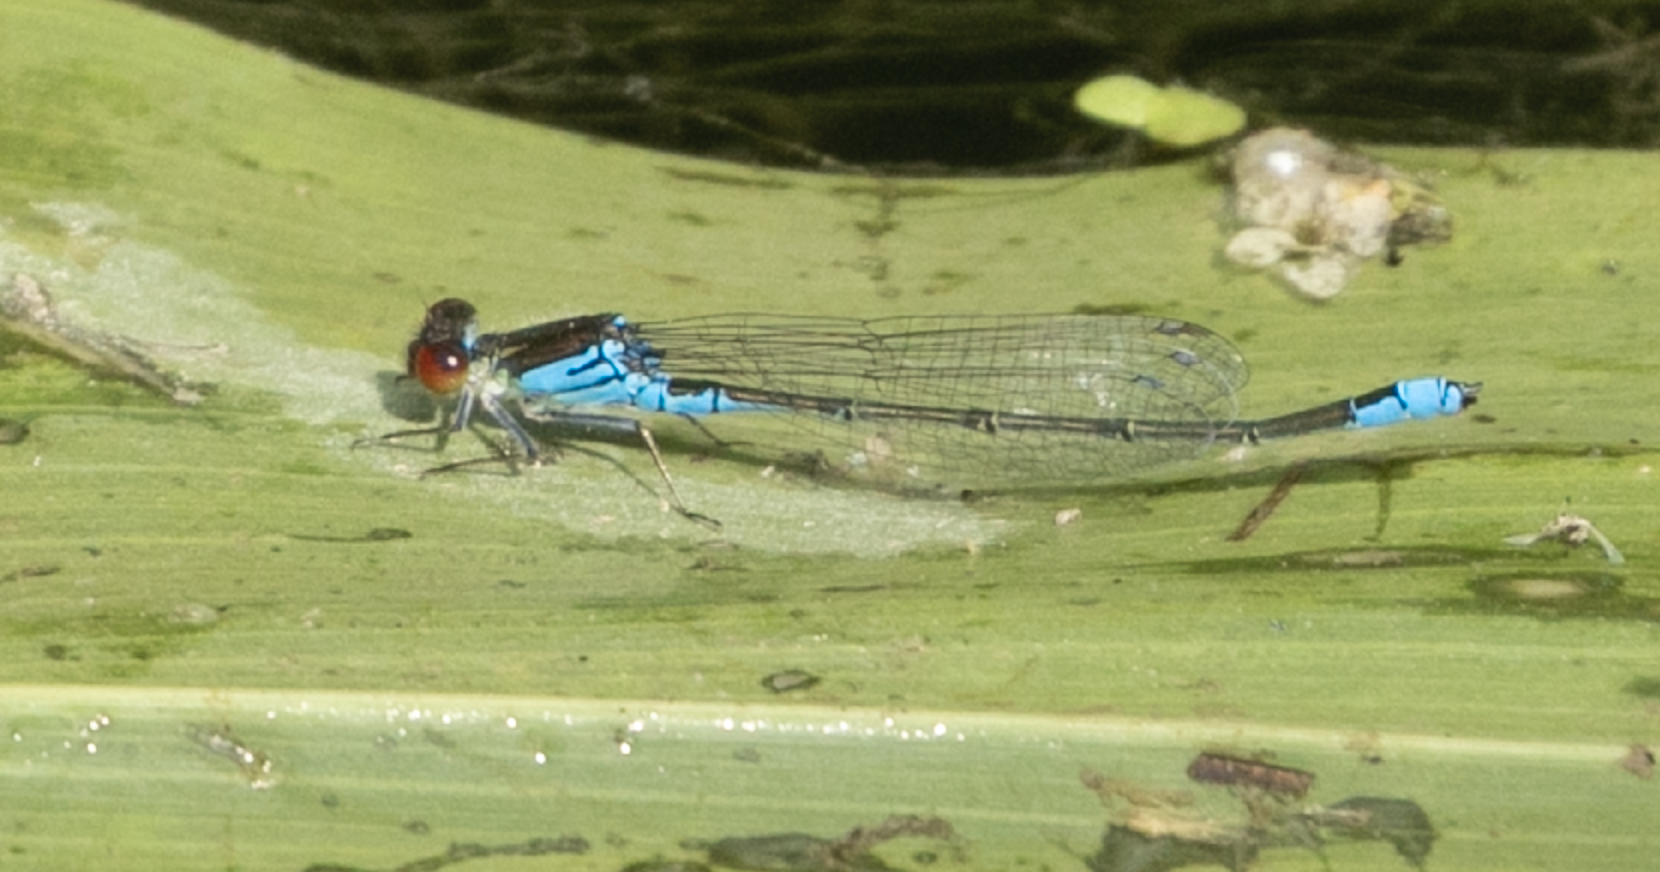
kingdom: Animalia
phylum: Arthropoda
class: Insecta
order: Odonata
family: Coenagrionidae
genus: Erythromma
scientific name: Erythromma viridulum
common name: Small red-eyed damselfly
